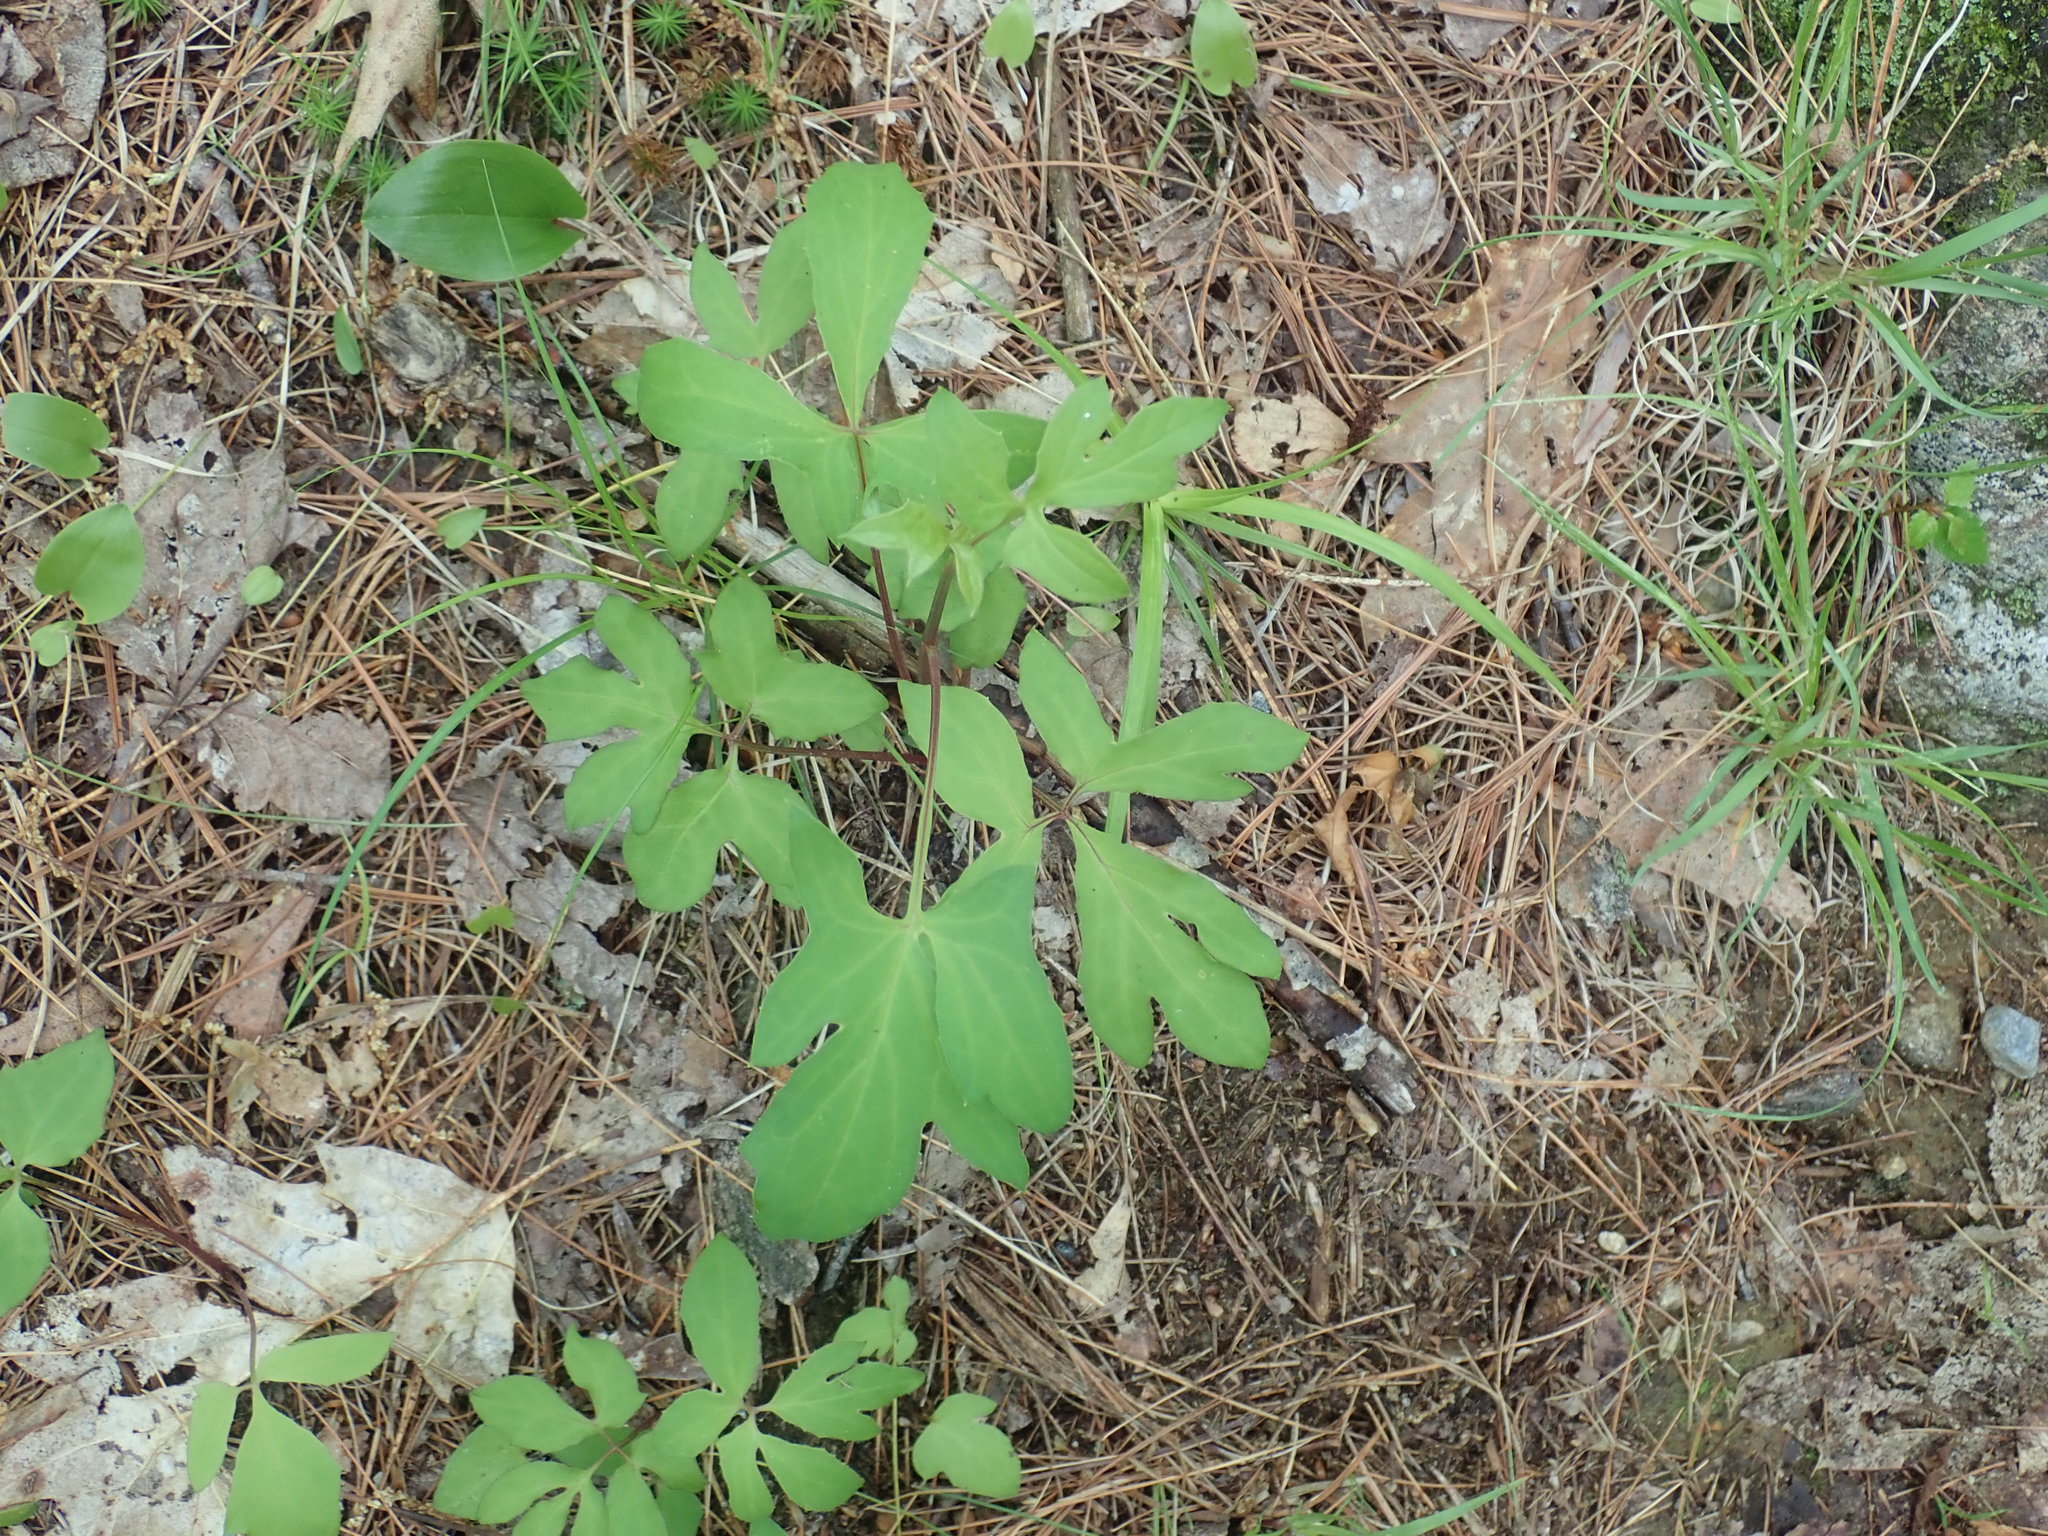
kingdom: Plantae
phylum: Tracheophyta
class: Magnoliopsida
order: Asterales
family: Asteraceae
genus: Nabalus
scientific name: Nabalus
